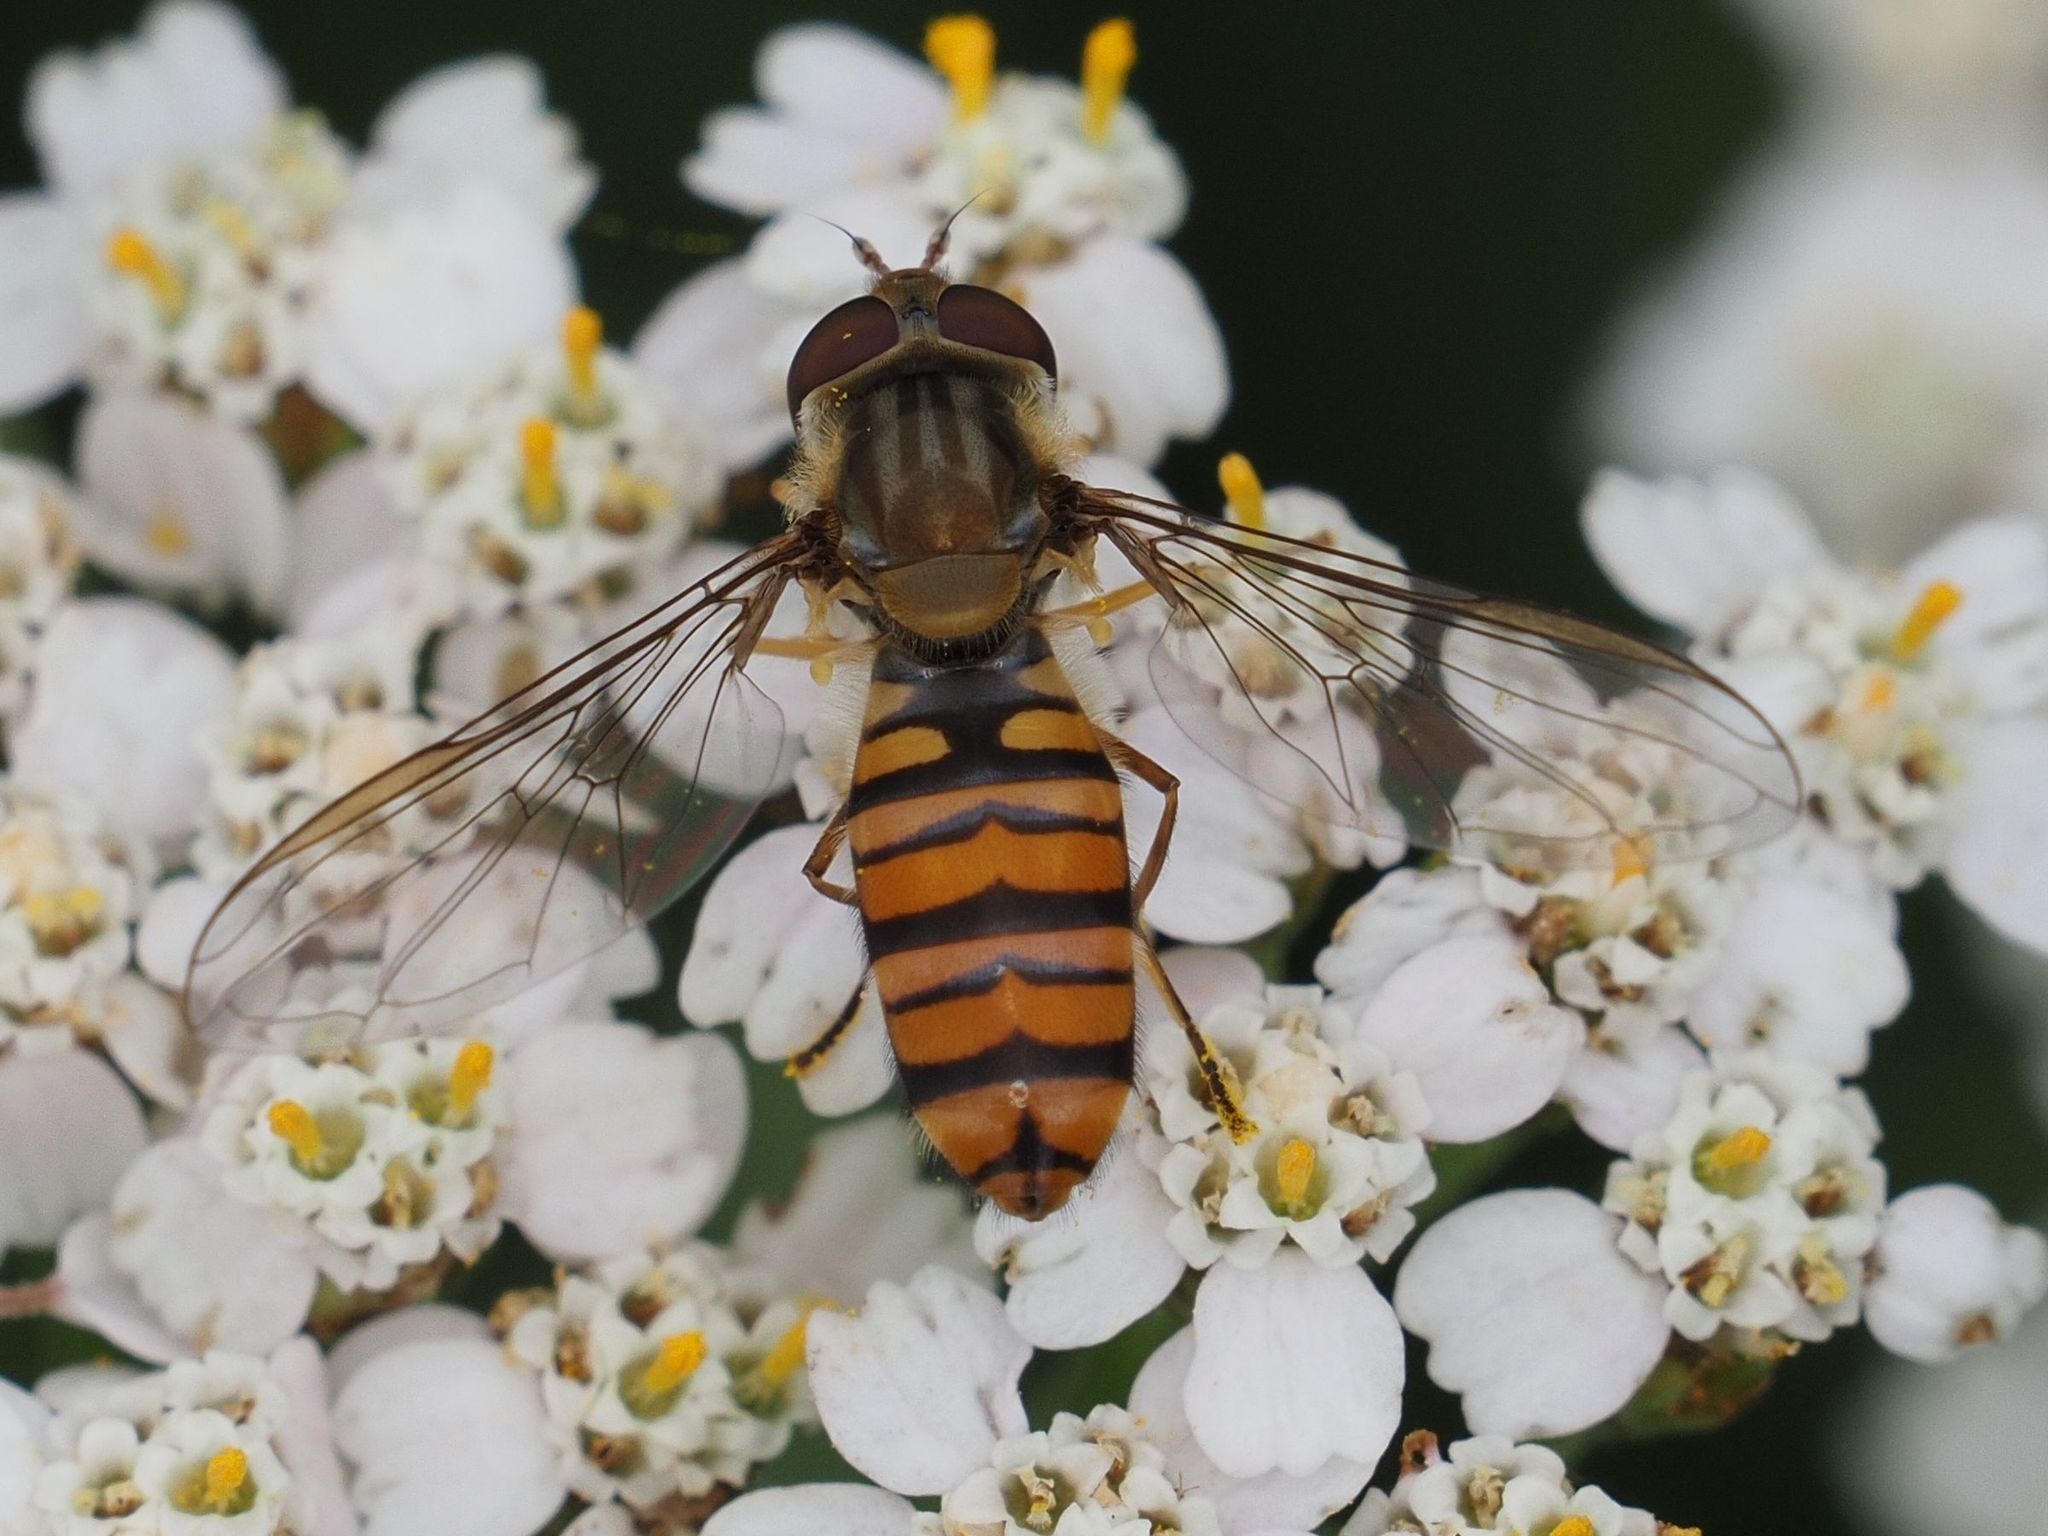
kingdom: Animalia
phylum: Arthropoda
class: Insecta
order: Diptera
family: Syrphidae
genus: Episyrphus
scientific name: Episyrphus balteatus
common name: Marmalade hoverfly
